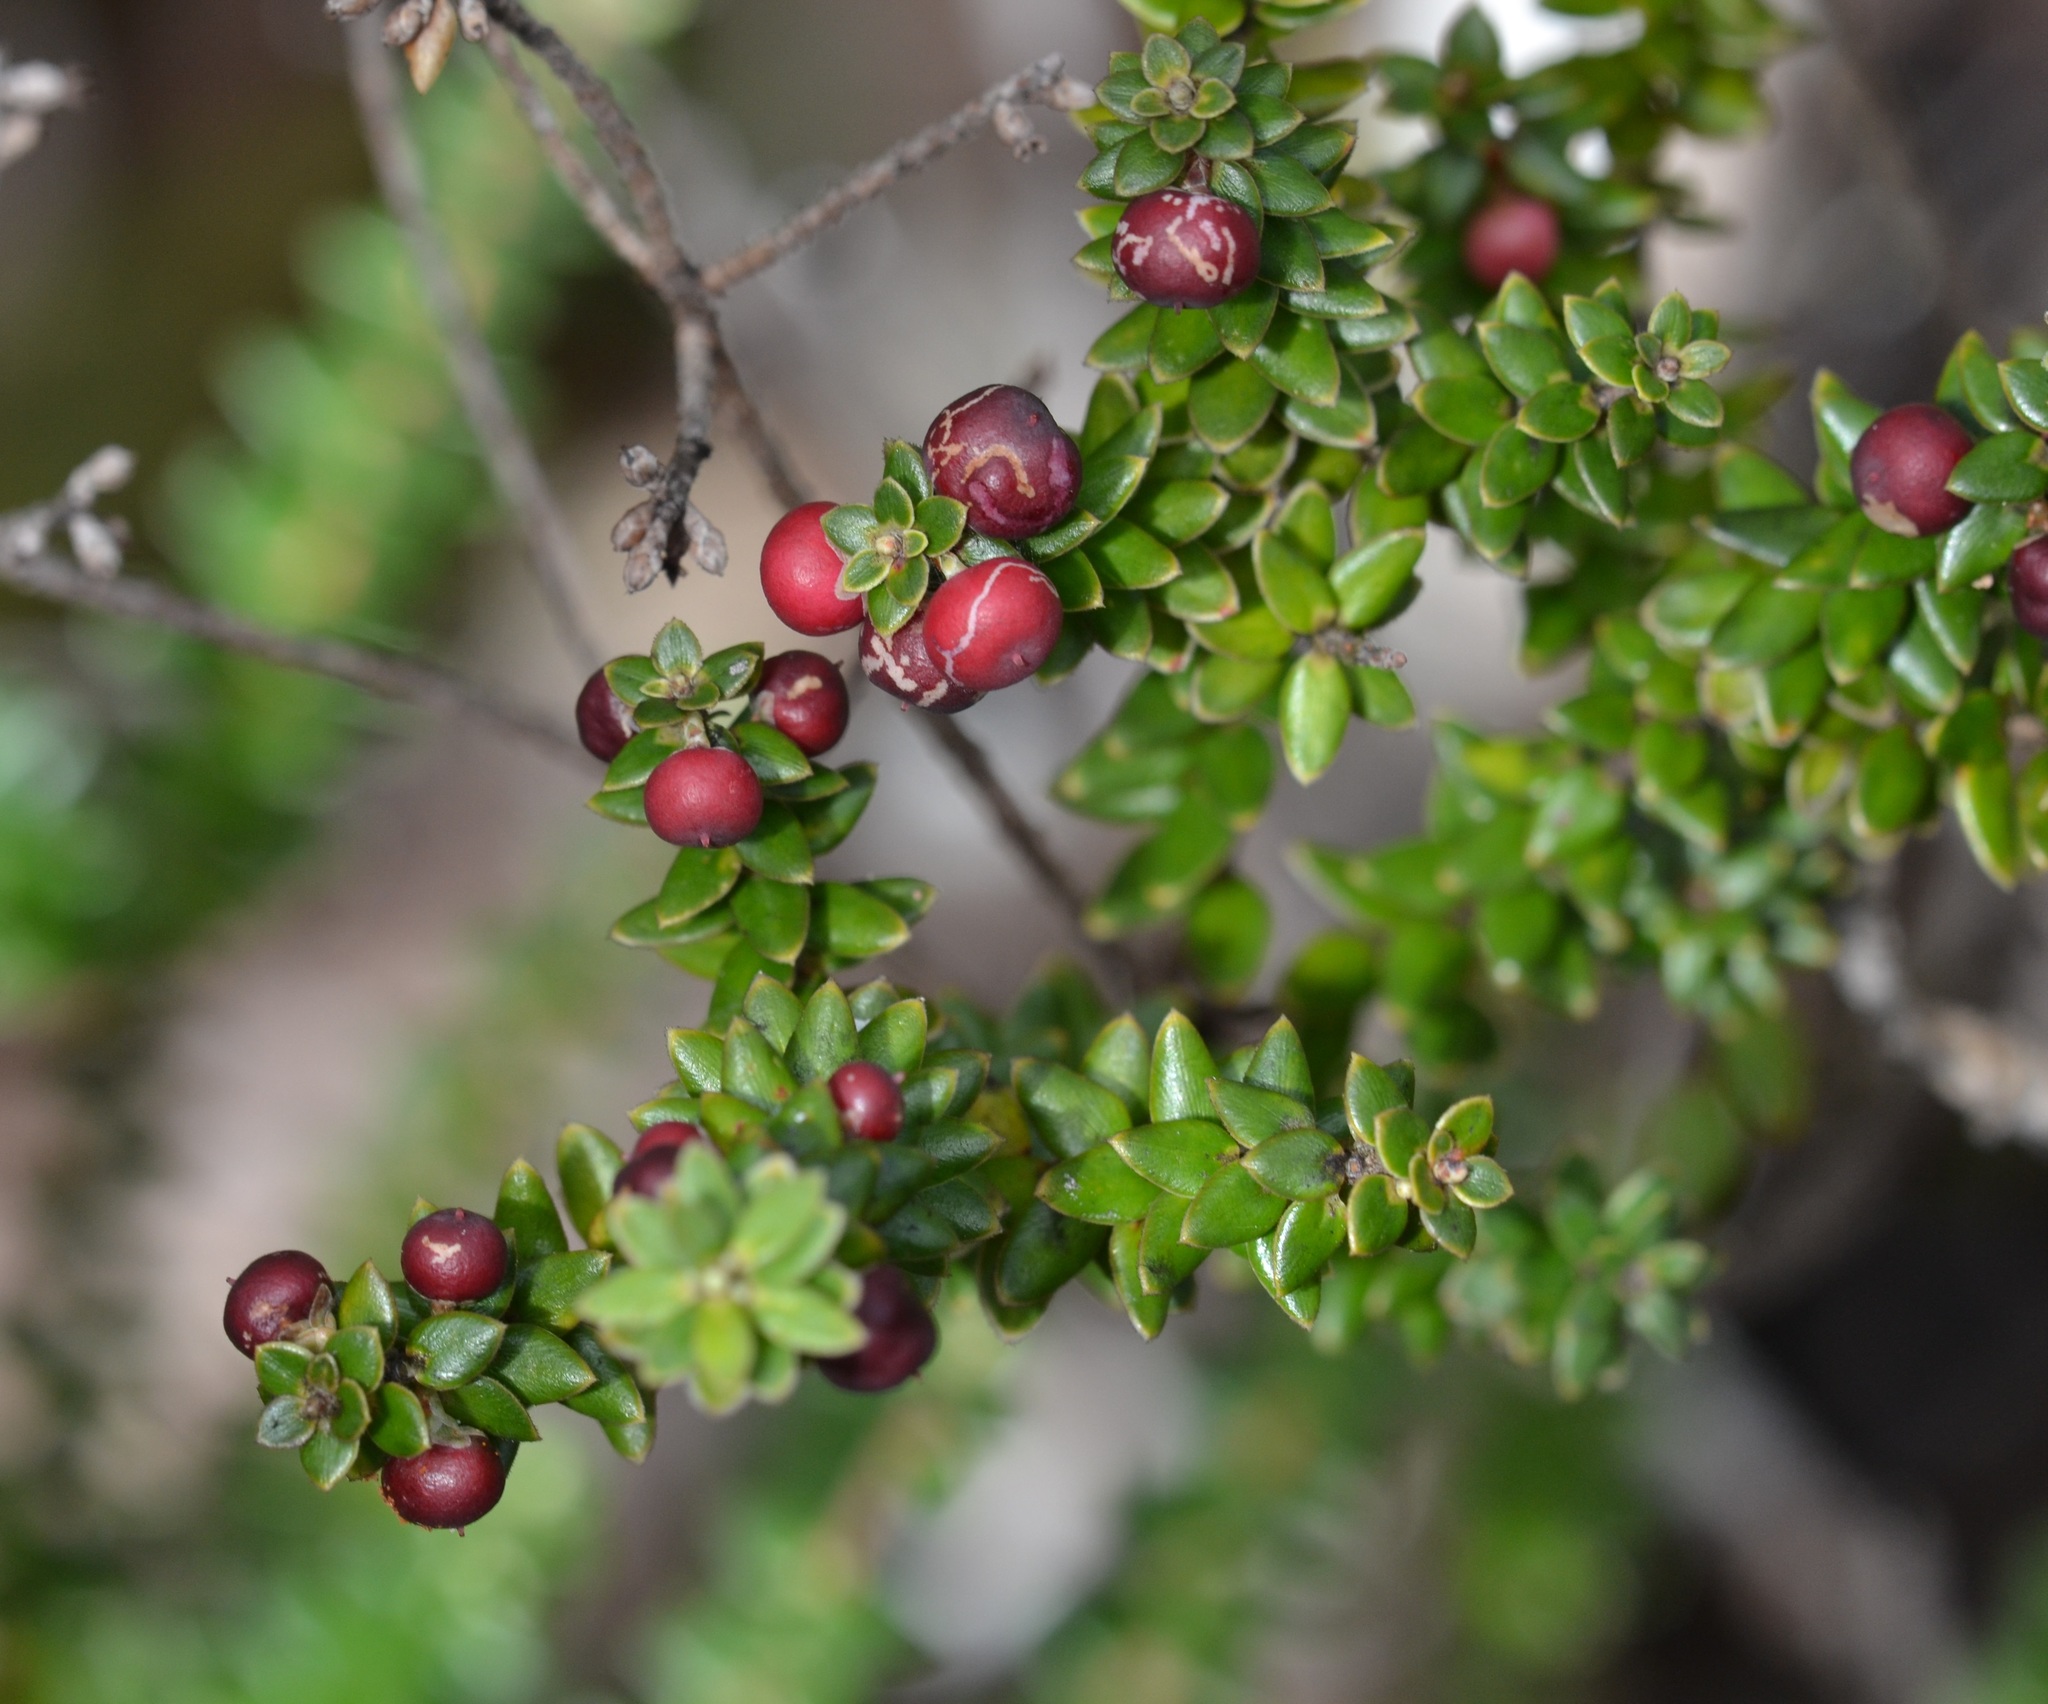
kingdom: Plantae
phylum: Tracheophyta
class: Magnoliopsida
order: Ericales
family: Ericaceae
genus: Leptecophylla
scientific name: Leptecophylla tameiameiae
